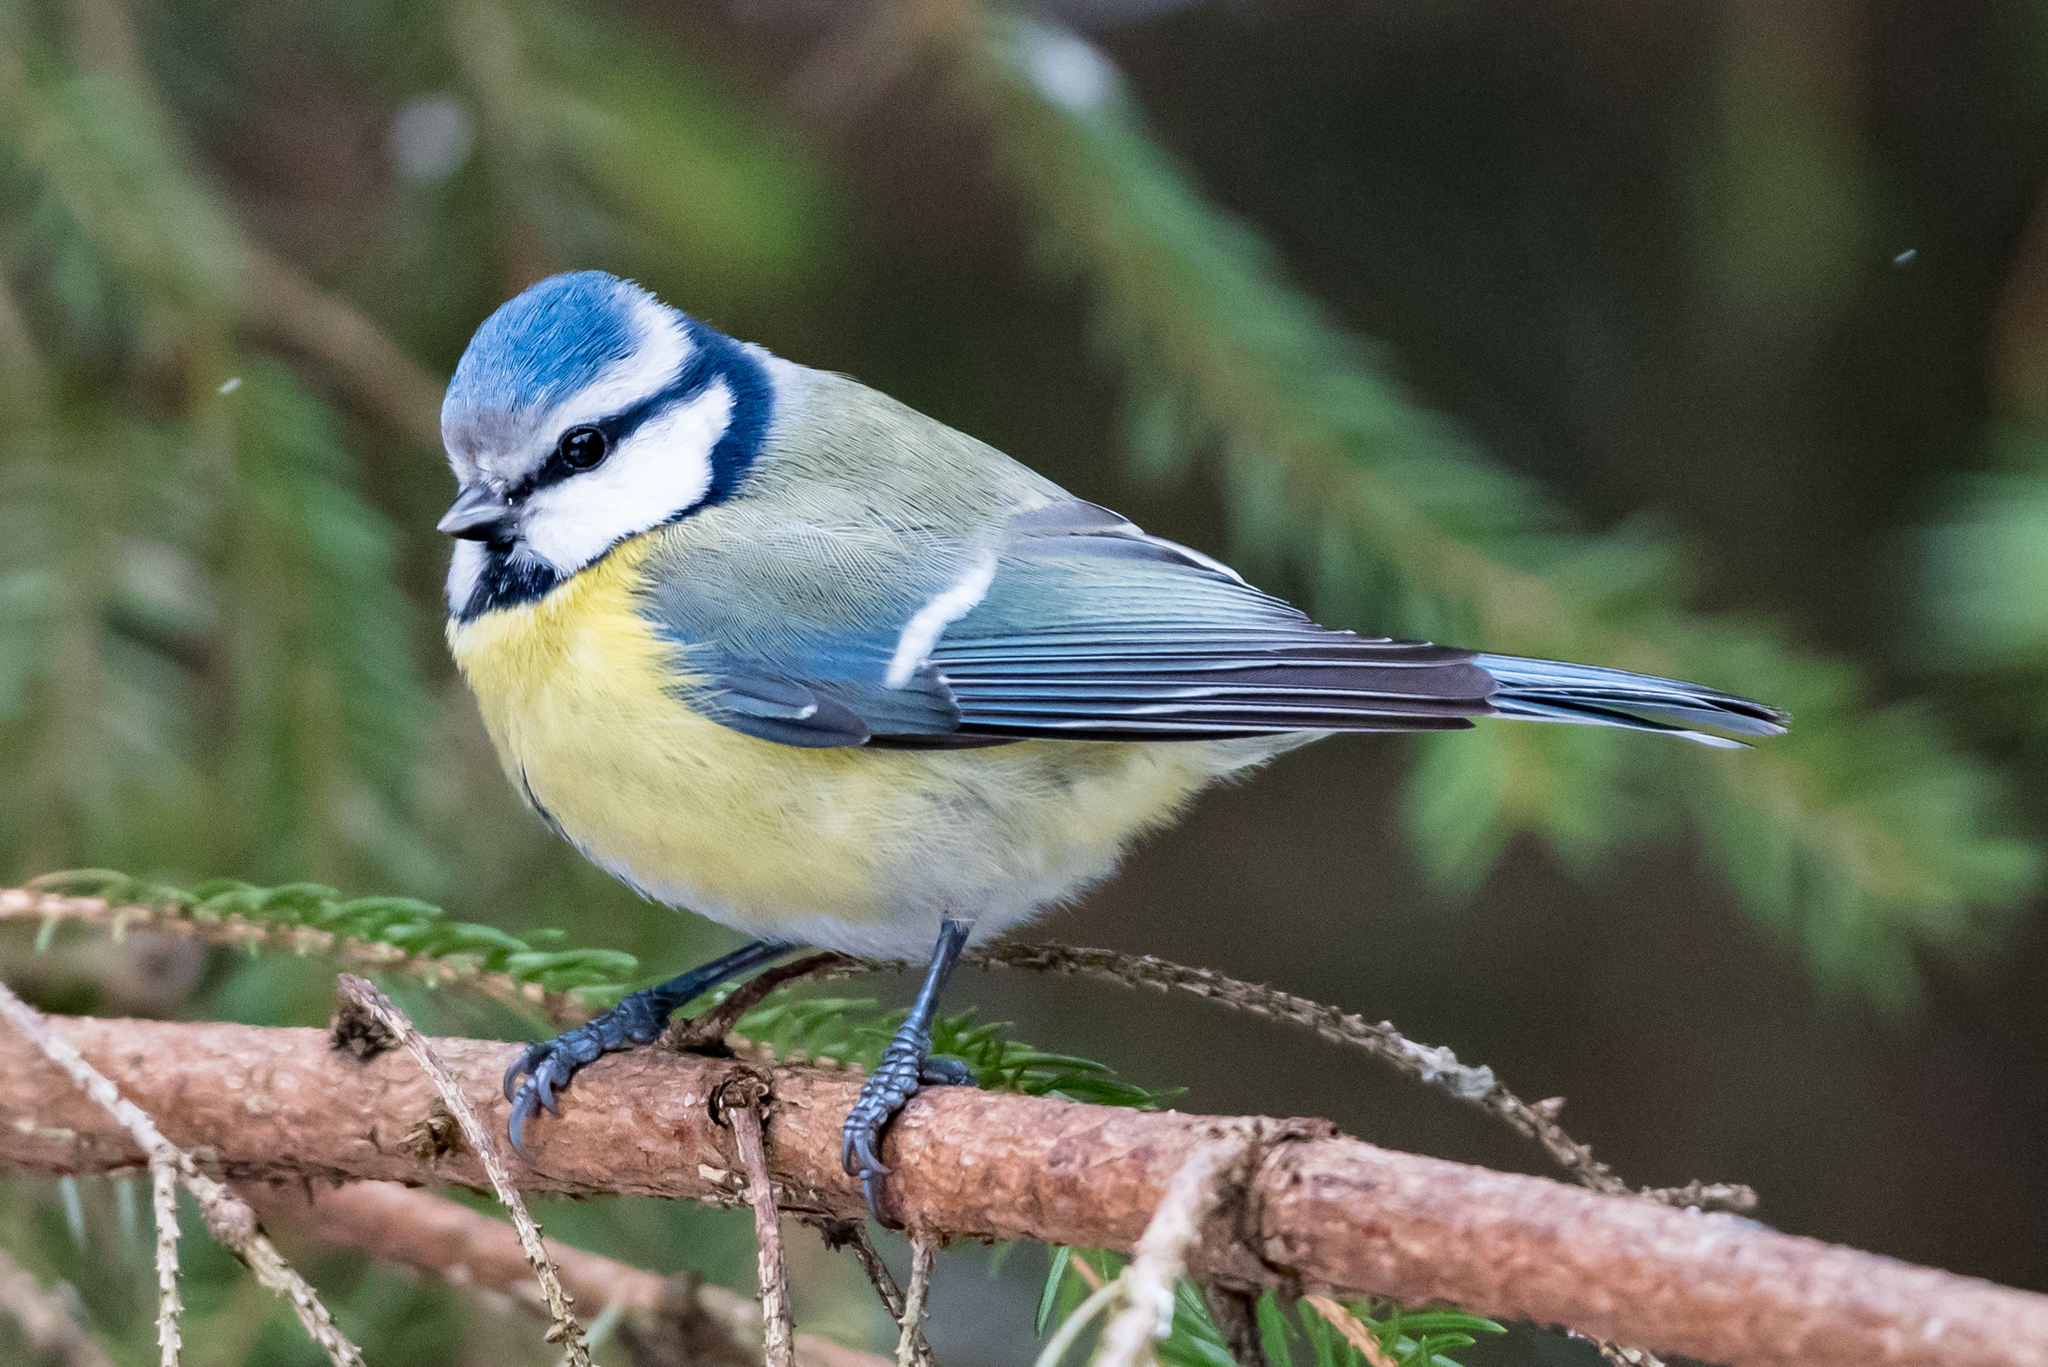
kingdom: Animalia
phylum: Chordata
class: Aves
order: Passeriformes
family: Paridae
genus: Cyanistes
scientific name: Cyanistes caeruleus
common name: Eurasian blue tit
